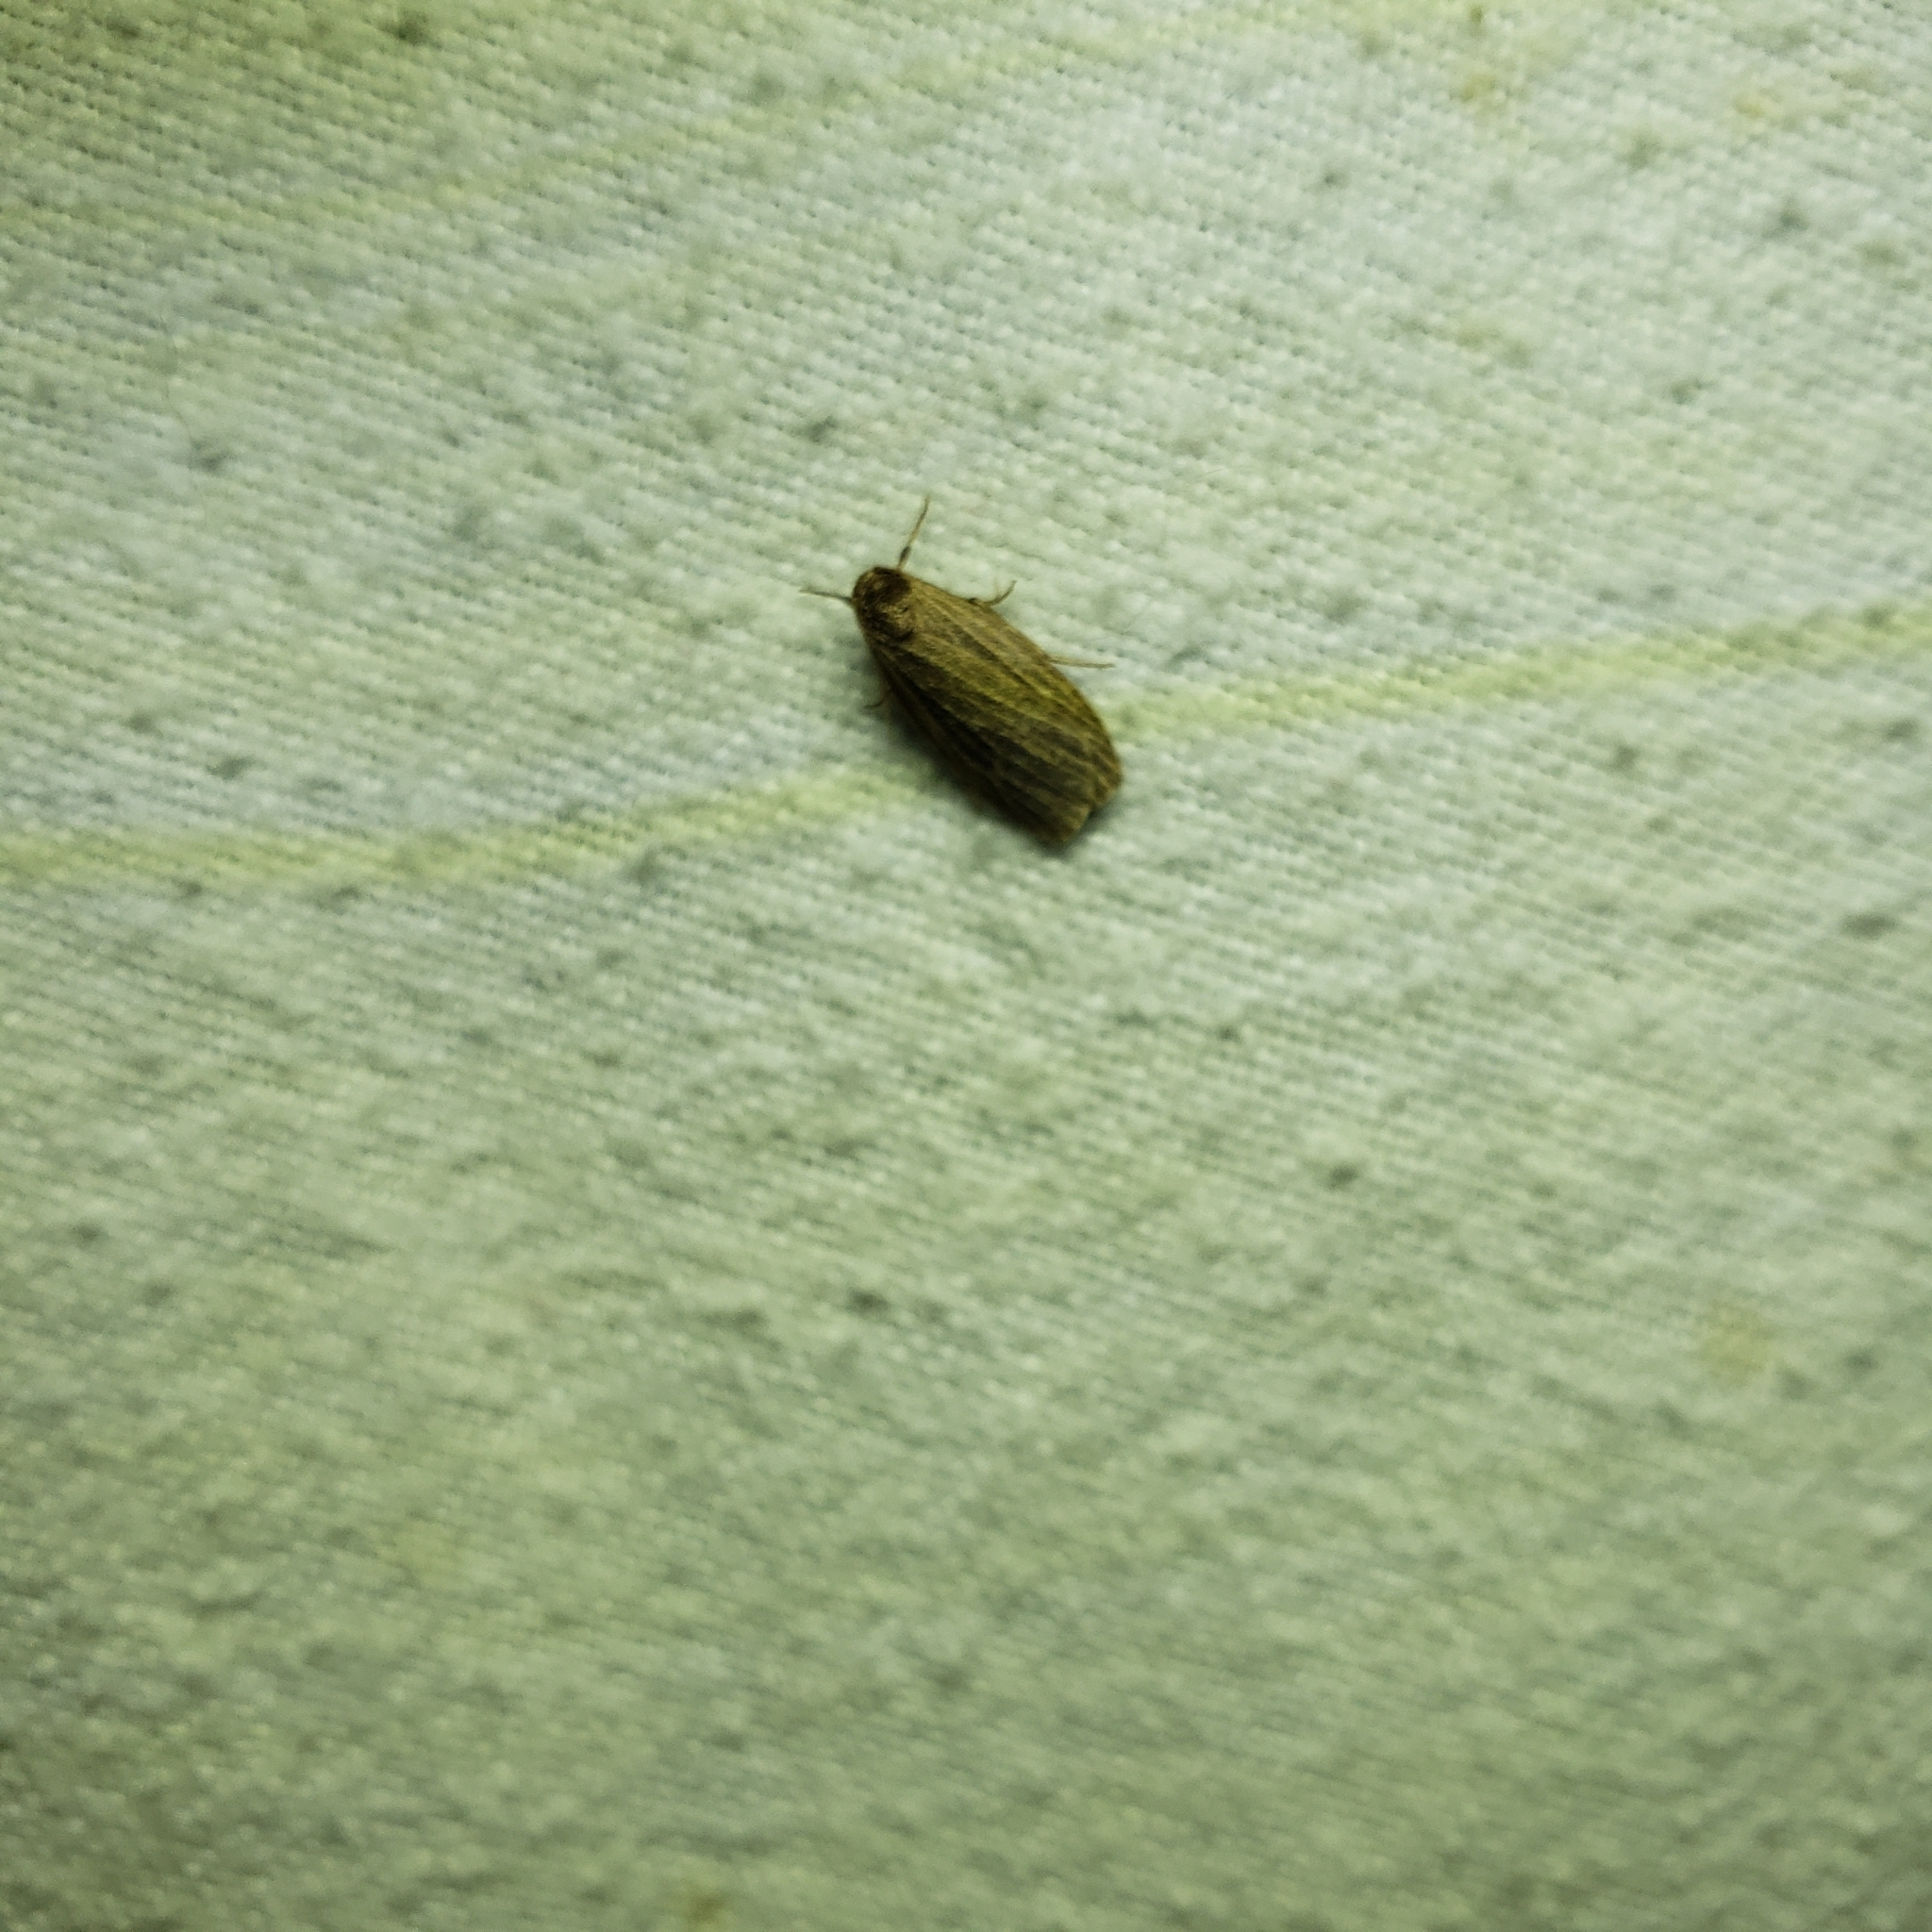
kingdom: Animalia
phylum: Arthropoda
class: Insecta
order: Lepidoptera
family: Erebidae
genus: Crambidia
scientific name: Crambidia pallida
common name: Pale lichen moth
